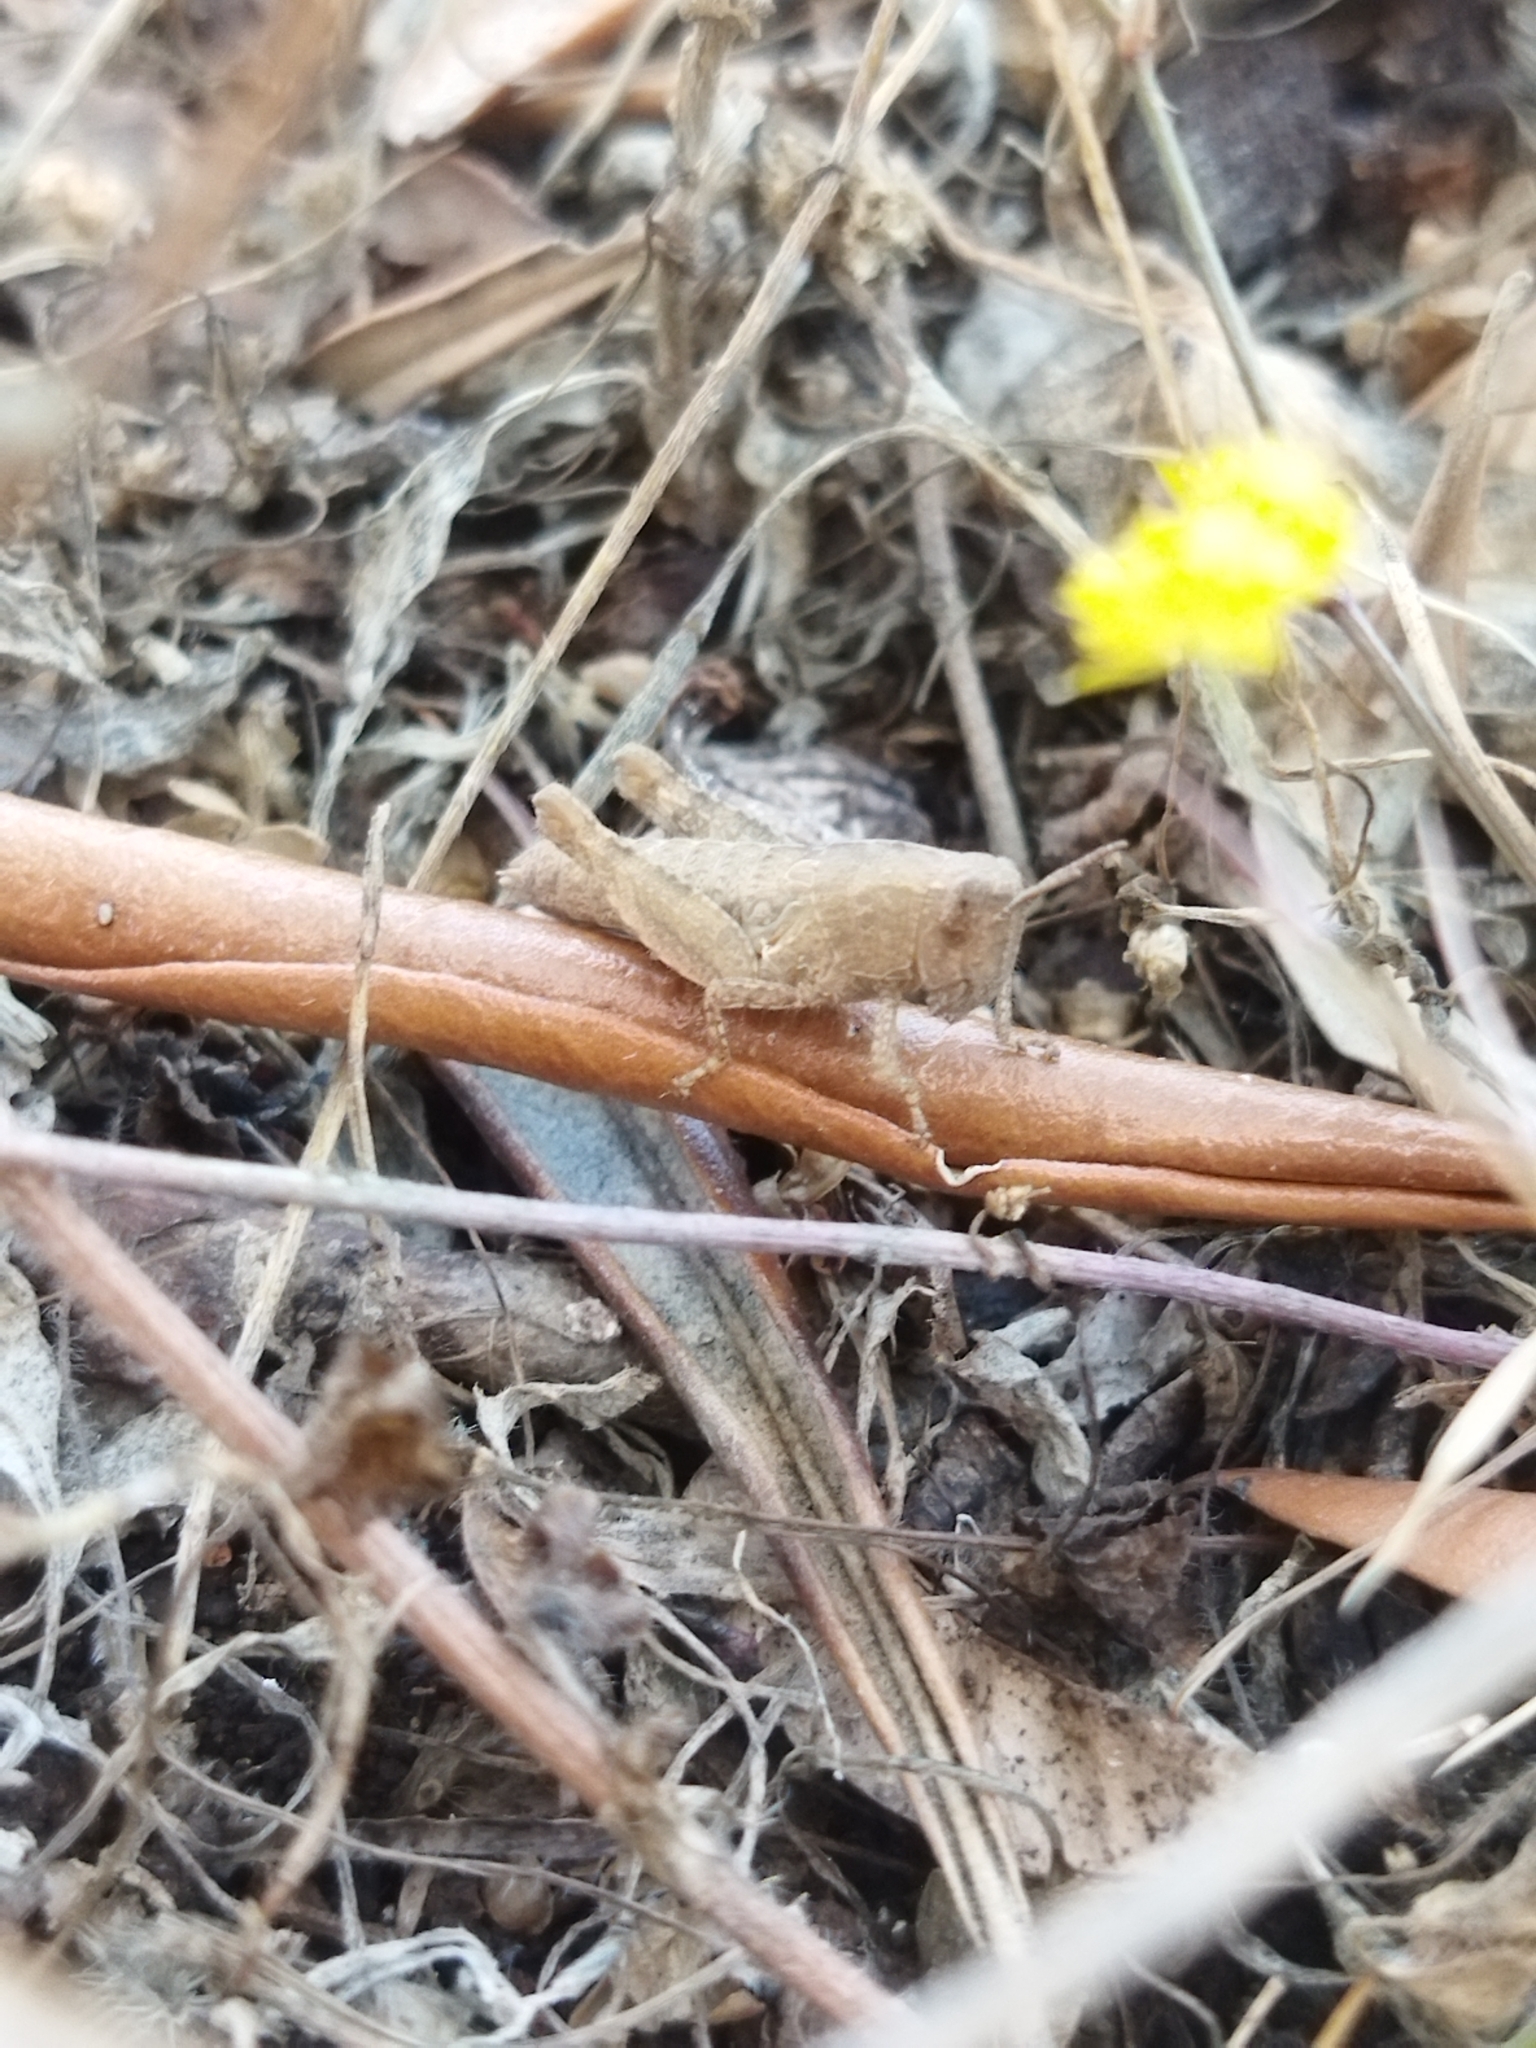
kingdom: Animalia
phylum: Arthropoda
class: Insecta
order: Orthoptera
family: Acrididae
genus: Pezotettix
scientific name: Pezotettix giornae
